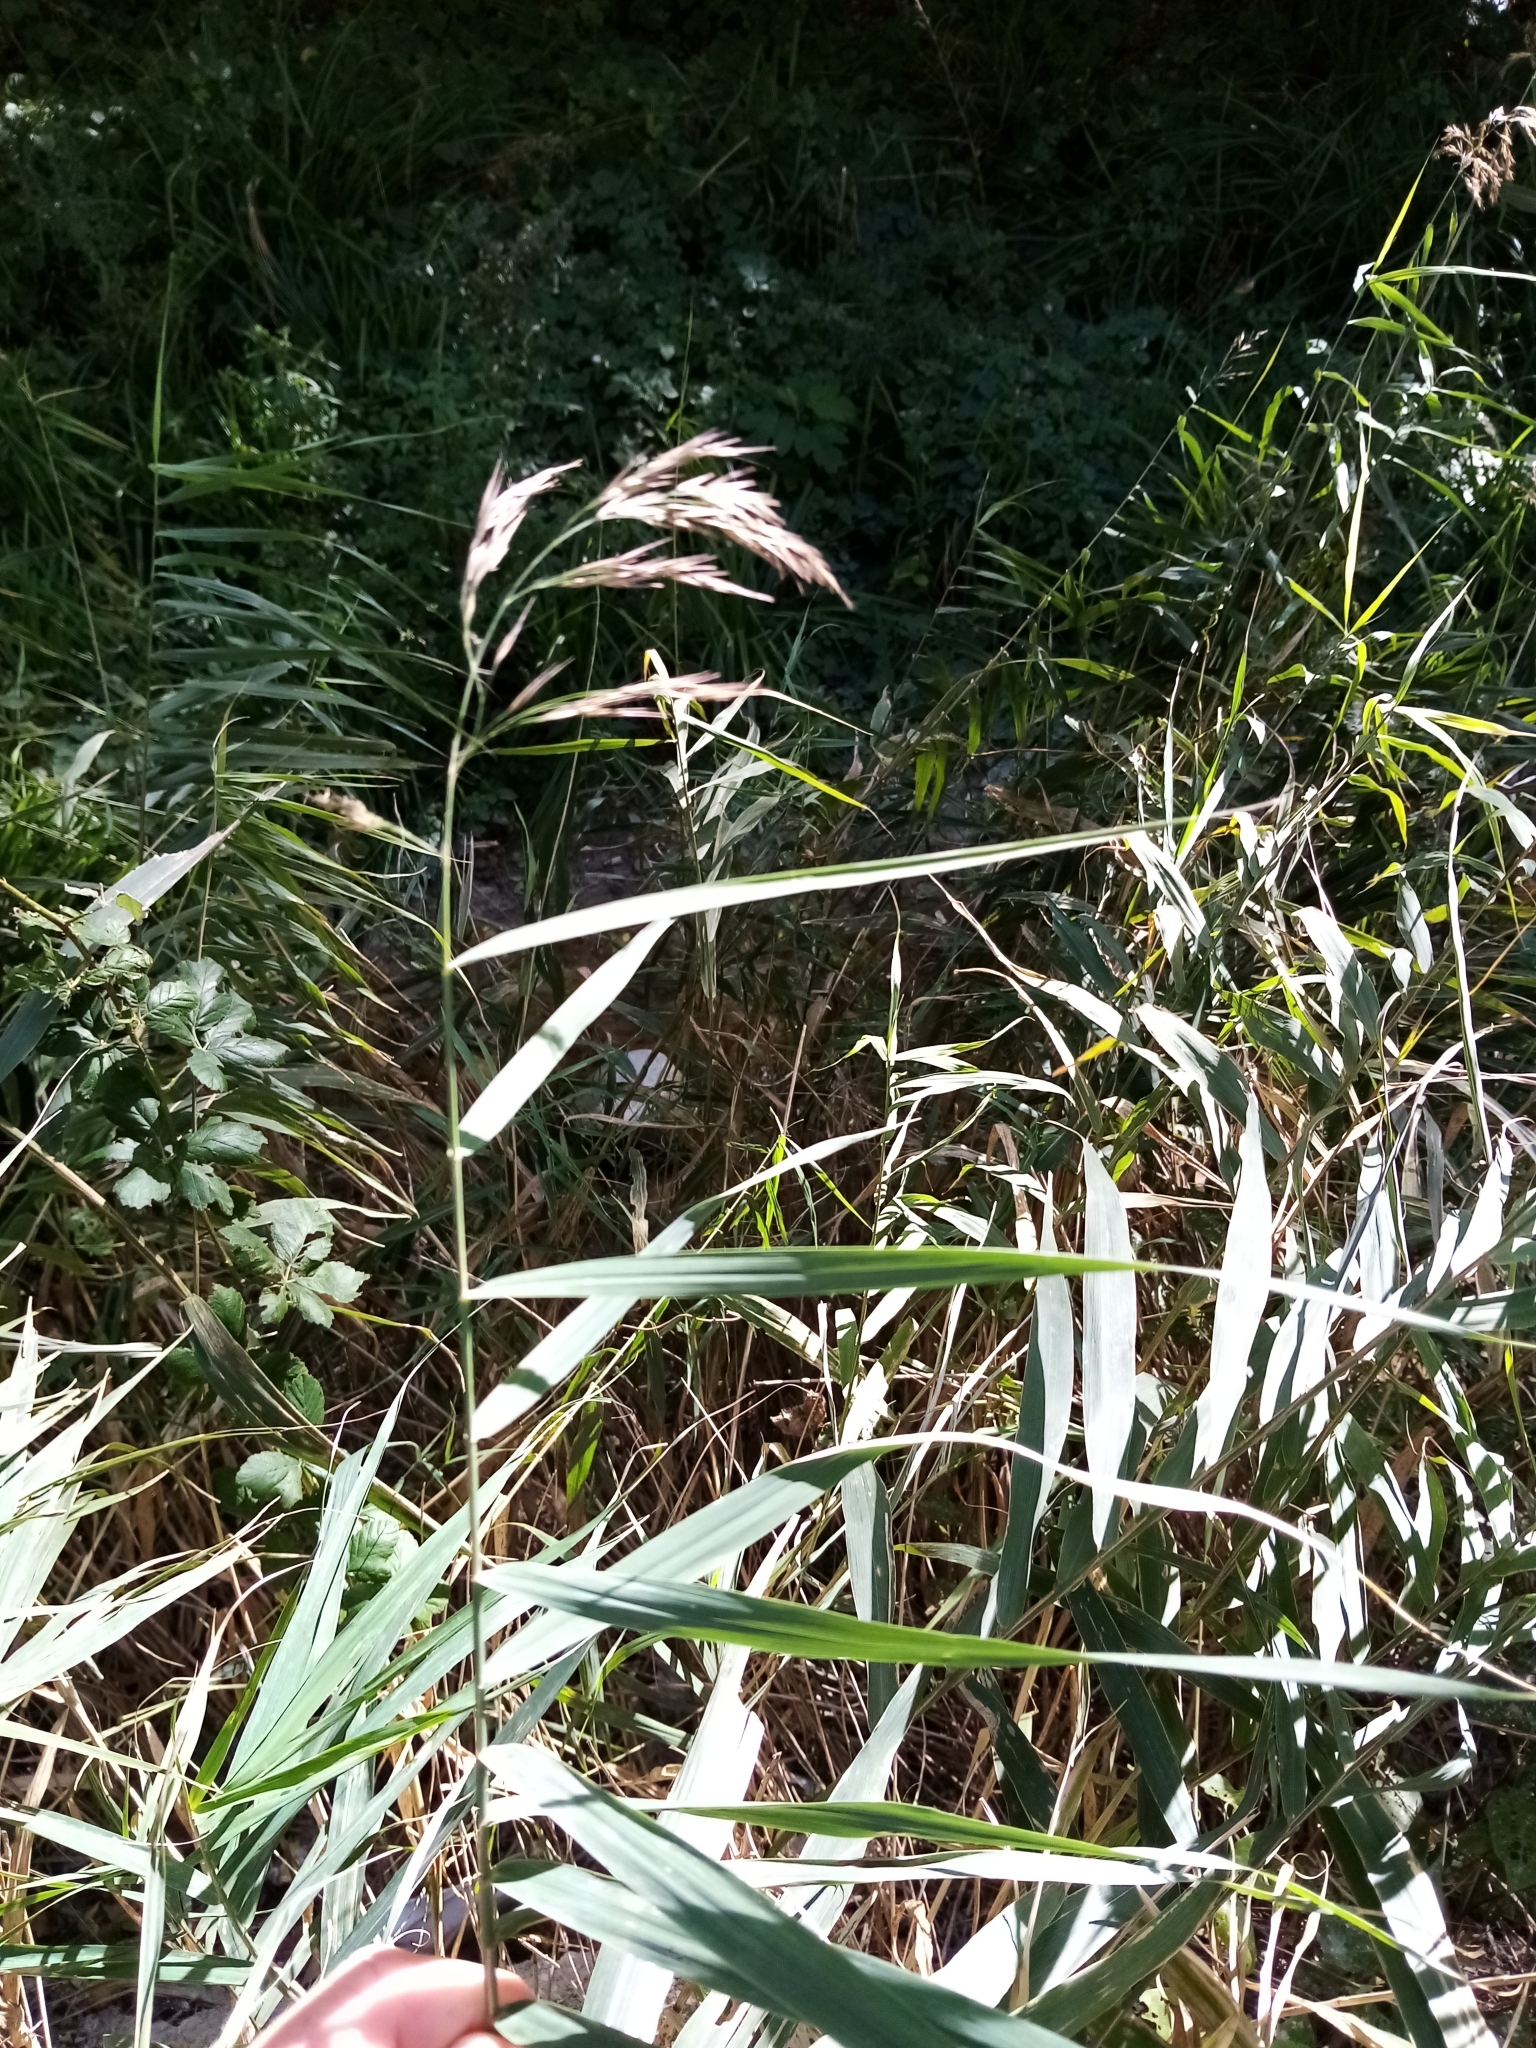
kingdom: Plantae
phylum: Tracheophyta
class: Liliopsida
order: Poales
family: Poaceae
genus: Phragmites
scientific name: Phragmites australis
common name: Common reed
